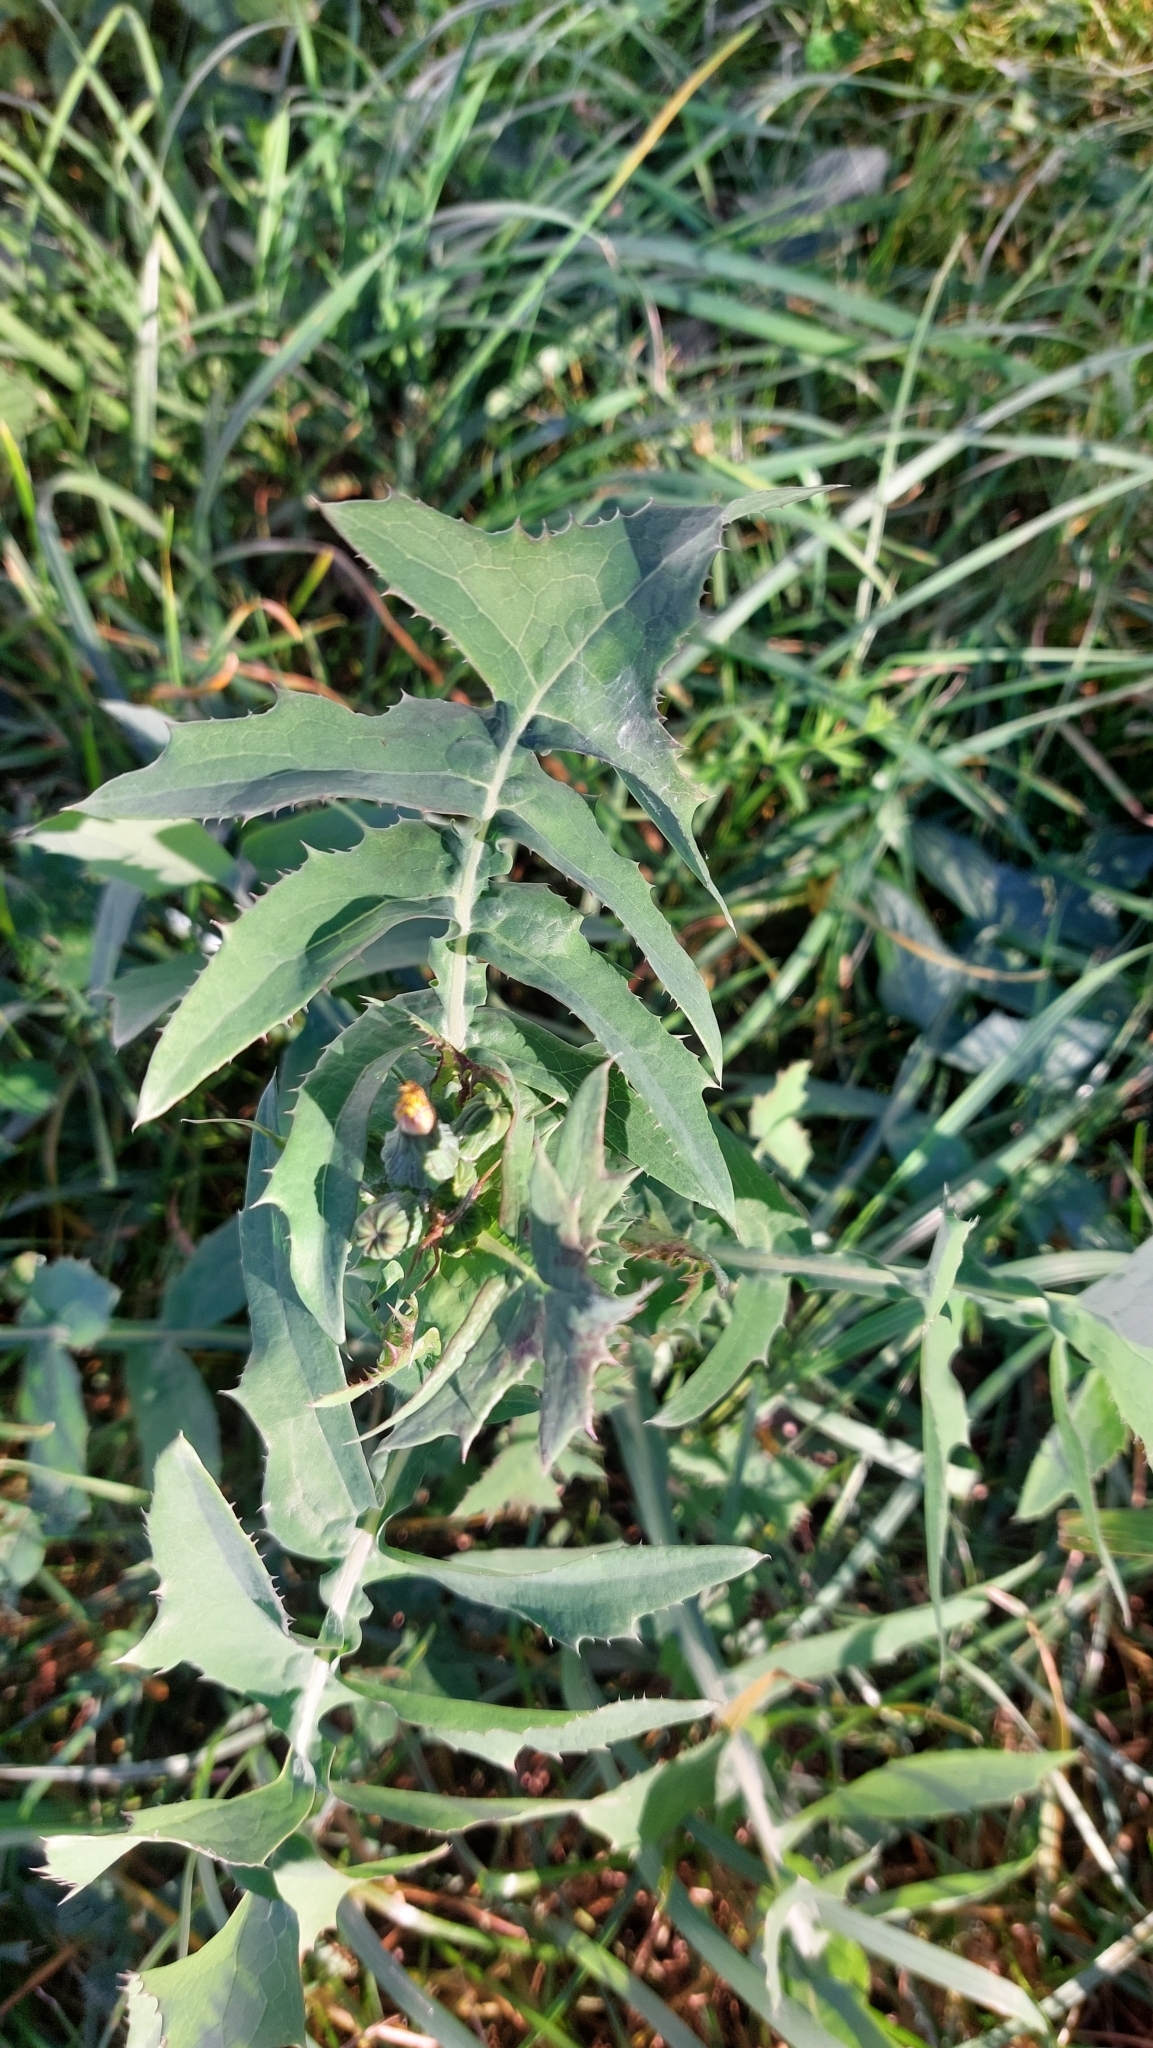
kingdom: Plantae
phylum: Tracheophyta
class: Magnoliopsida
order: Asterales
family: Asteraceae
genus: Sonchus
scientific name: Sonchus oleraceus
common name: Common sowthistle
